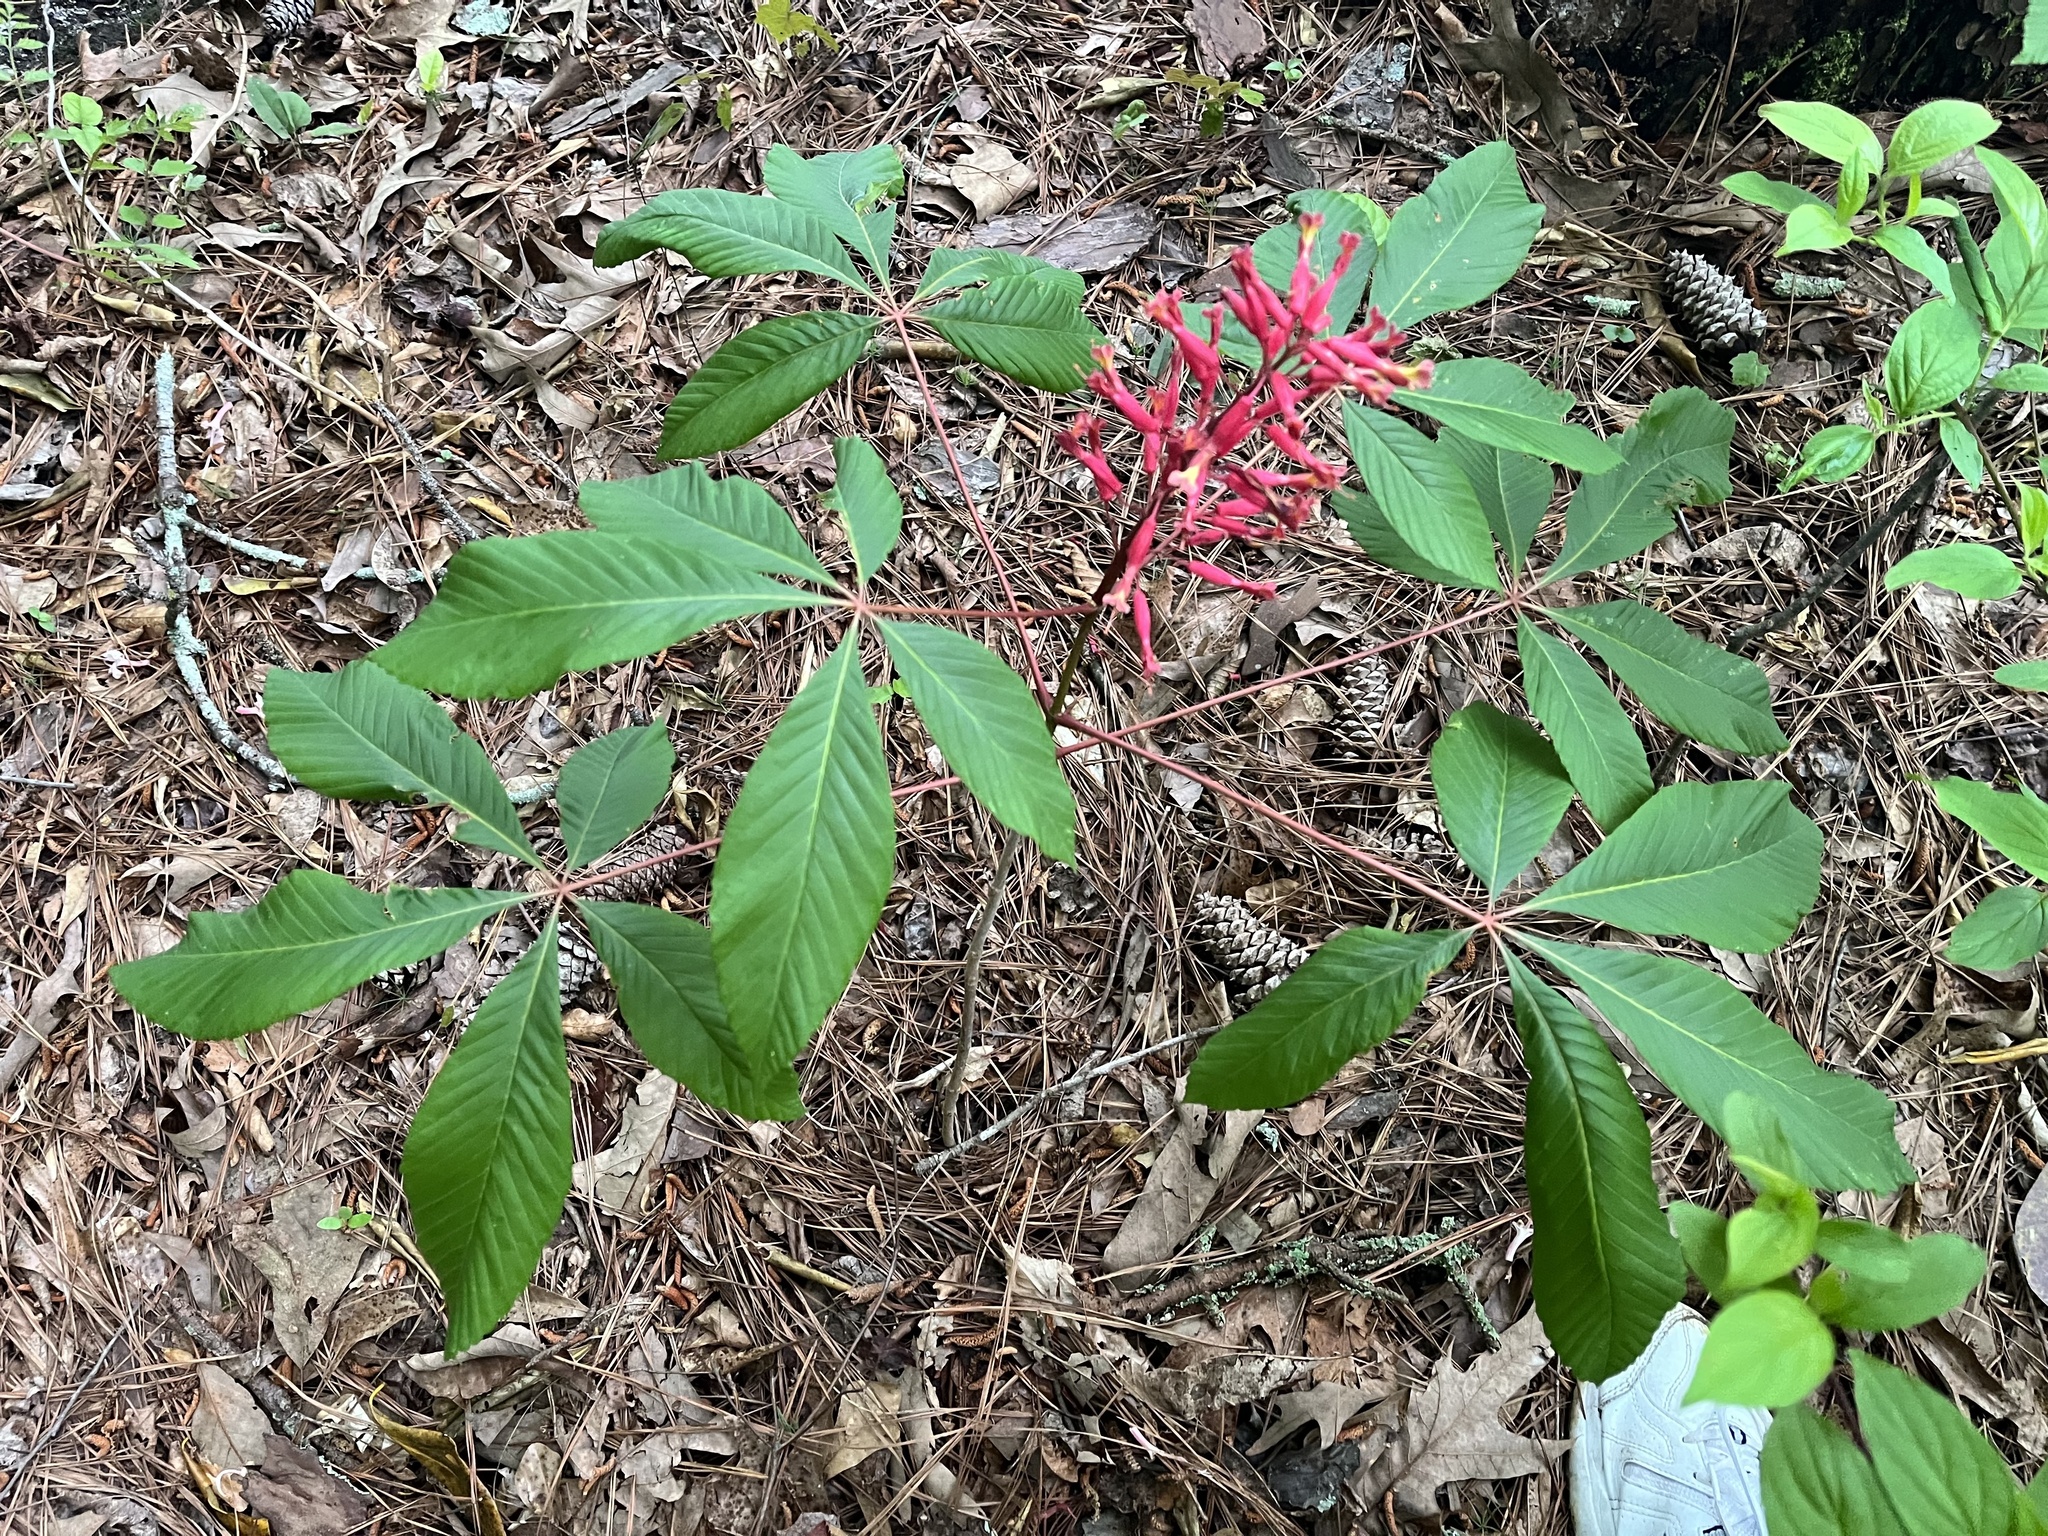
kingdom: Plantae
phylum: Tracheophyta
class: Magnoliopsida
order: Sapindales
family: Sapindaceae
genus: Aesculus
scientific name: Aesculus pavia
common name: Red buckeye
